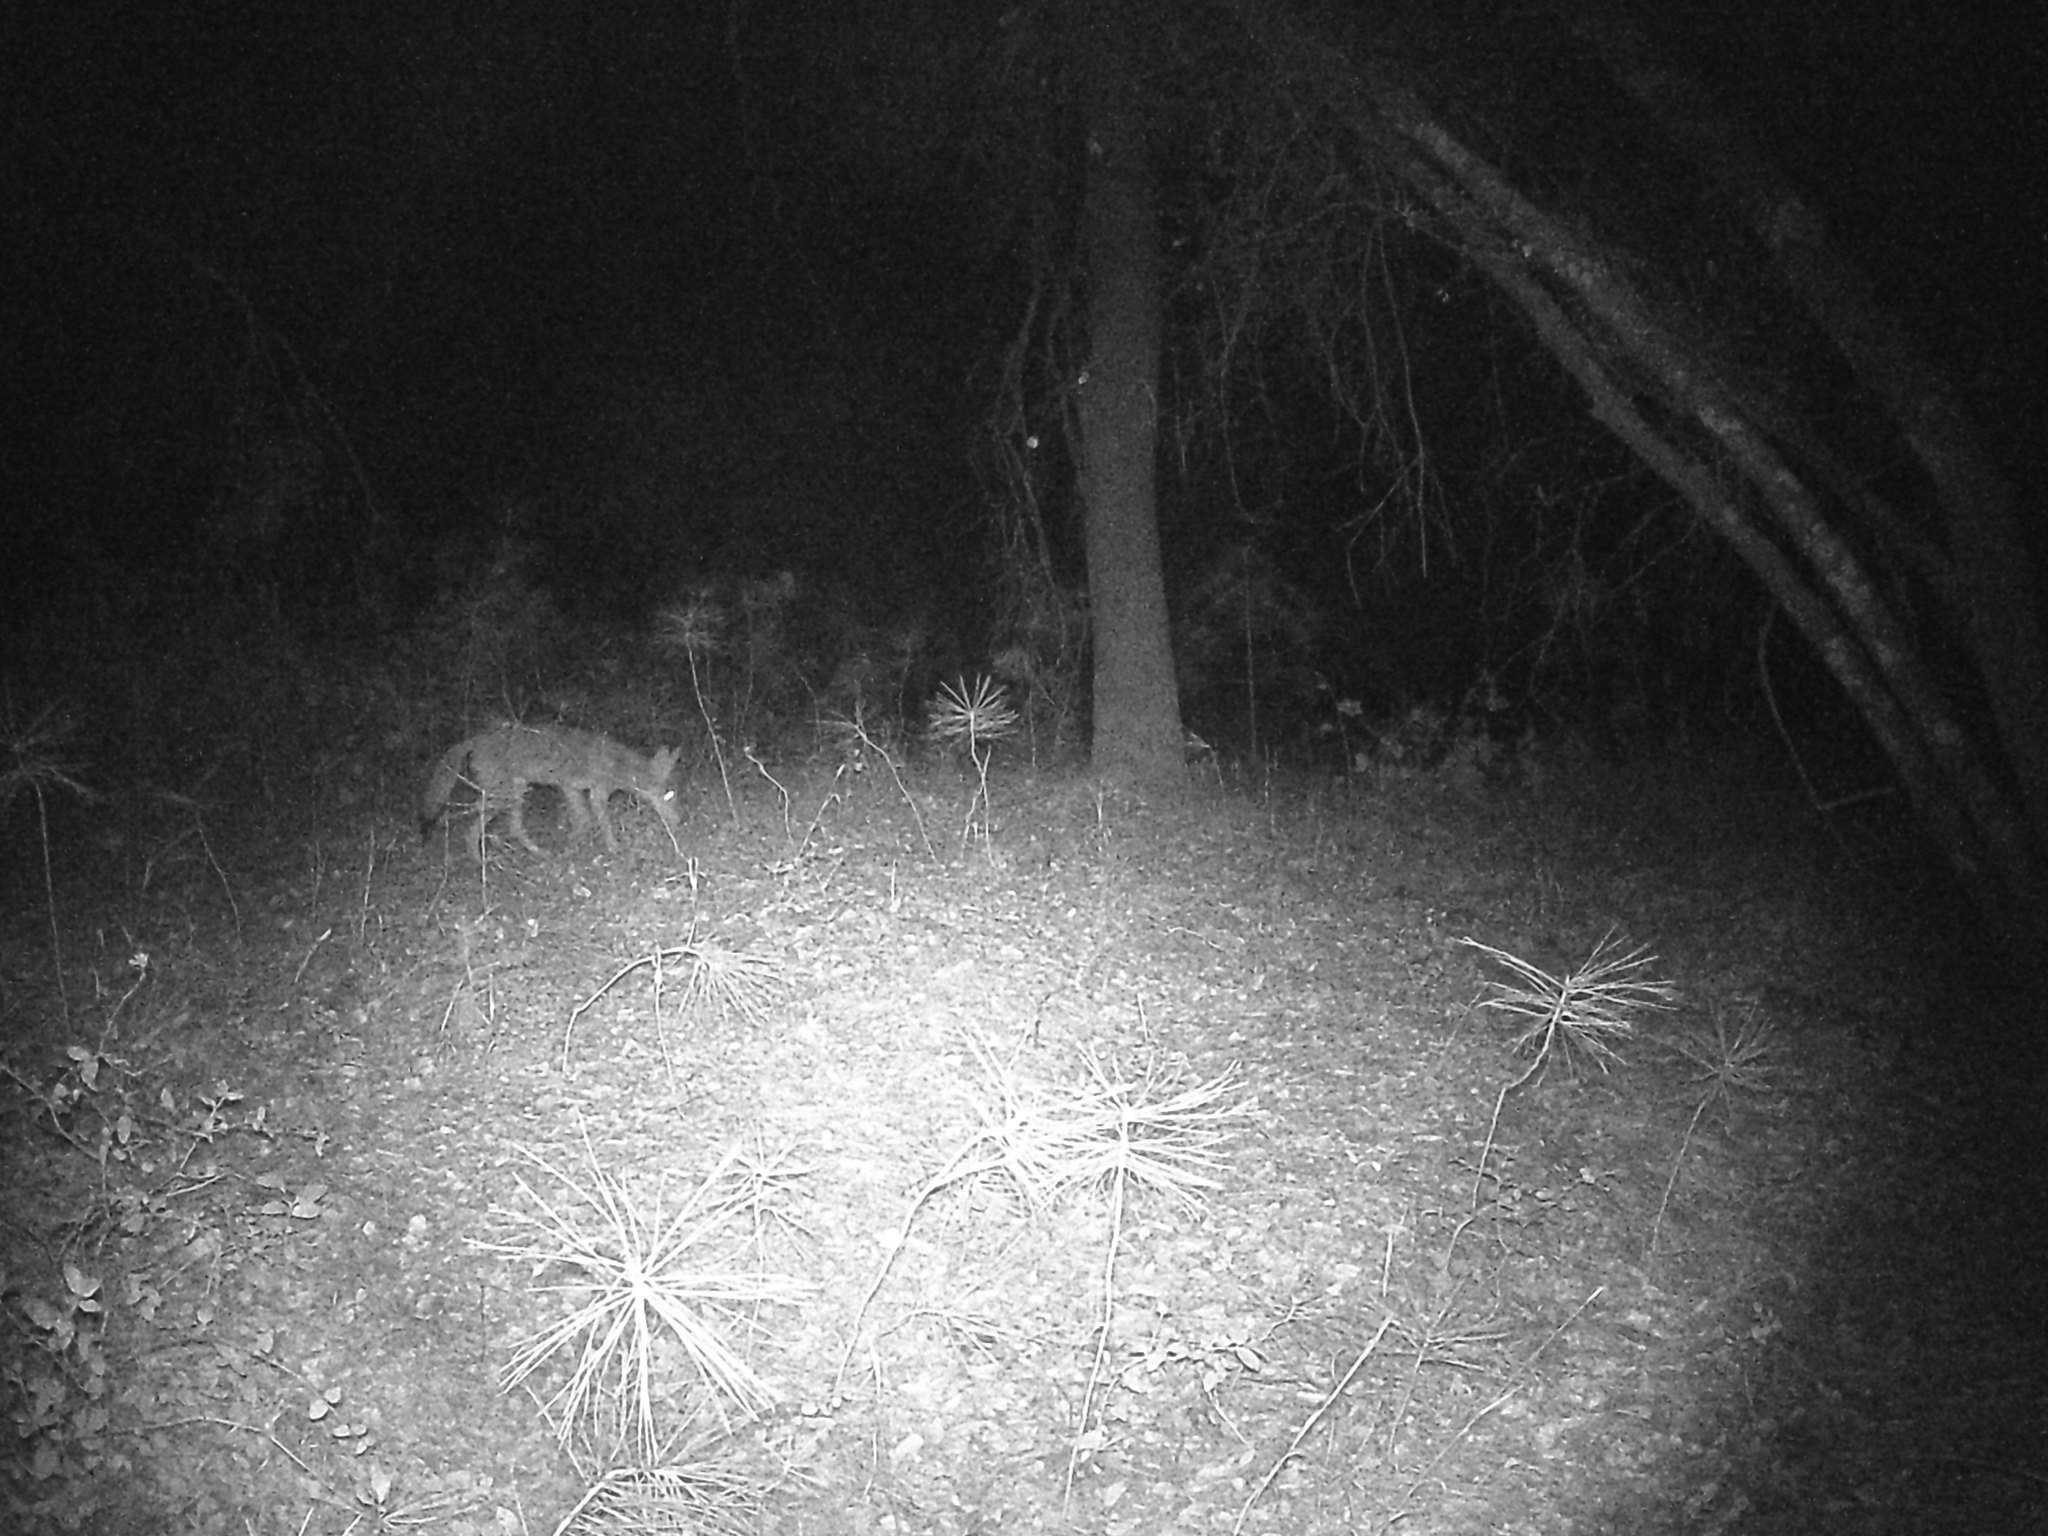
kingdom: Animalia
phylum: Chordata
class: Mammalia
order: Carnivora
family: Canidae
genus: Canis
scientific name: Canis latrans
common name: Coyote
